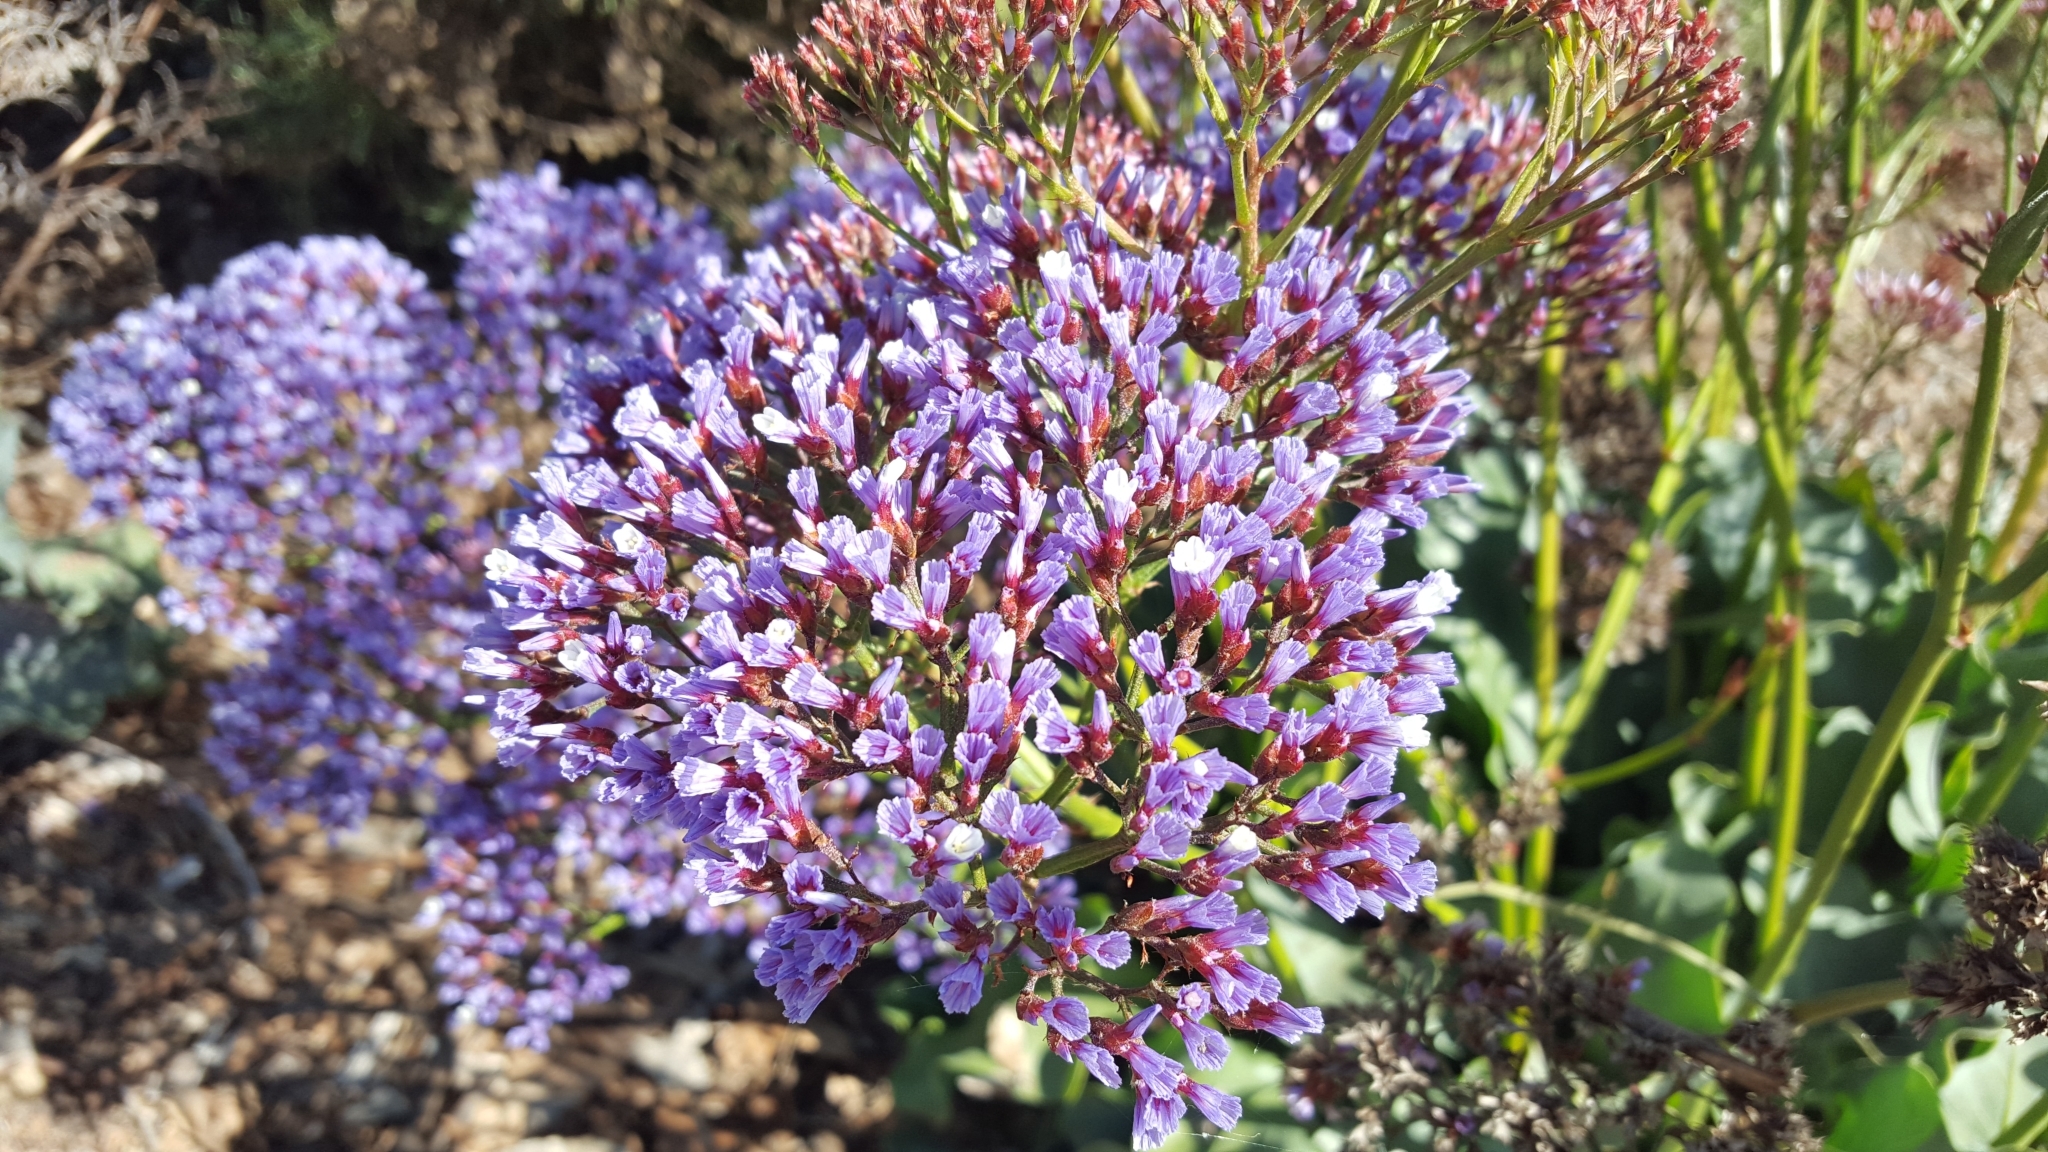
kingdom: Plantae
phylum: Tracheophyta
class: Magnoliopsida
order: Caryophyllales
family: Plumbaginaceae
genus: Limonium
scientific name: Limonium perezii
